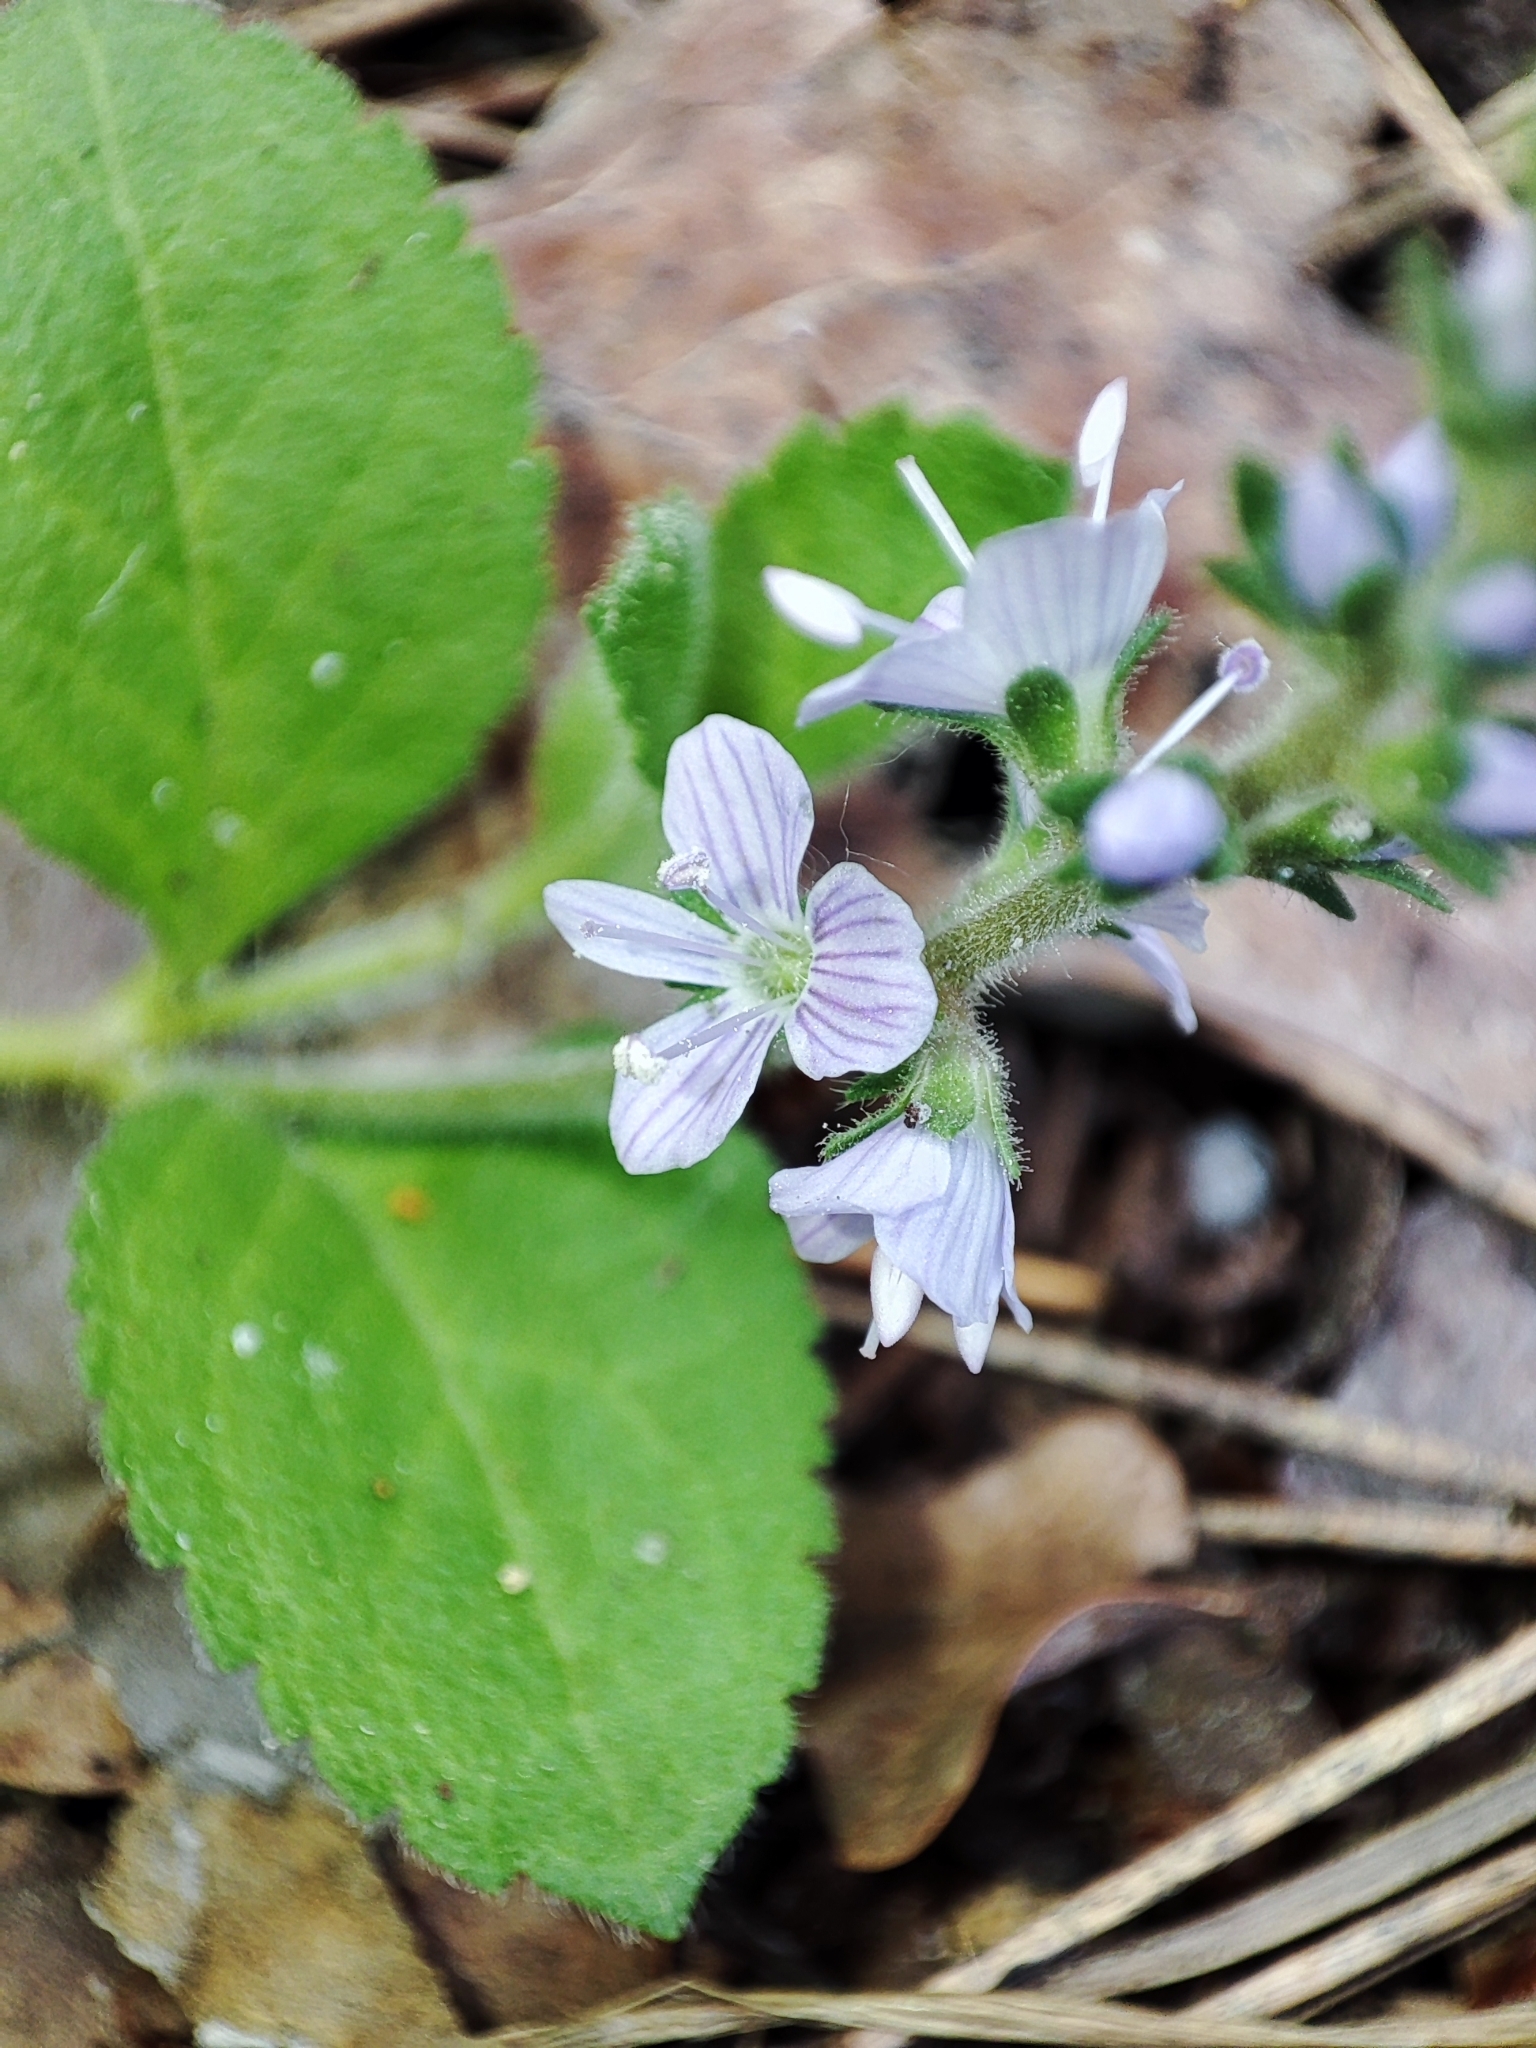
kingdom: Plantae
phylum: Tracheophyta
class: Magnoliopsida
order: Lamiales
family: Plantaginaceae
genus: Veronica
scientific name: Veronica officinalis
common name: Common speedwell
